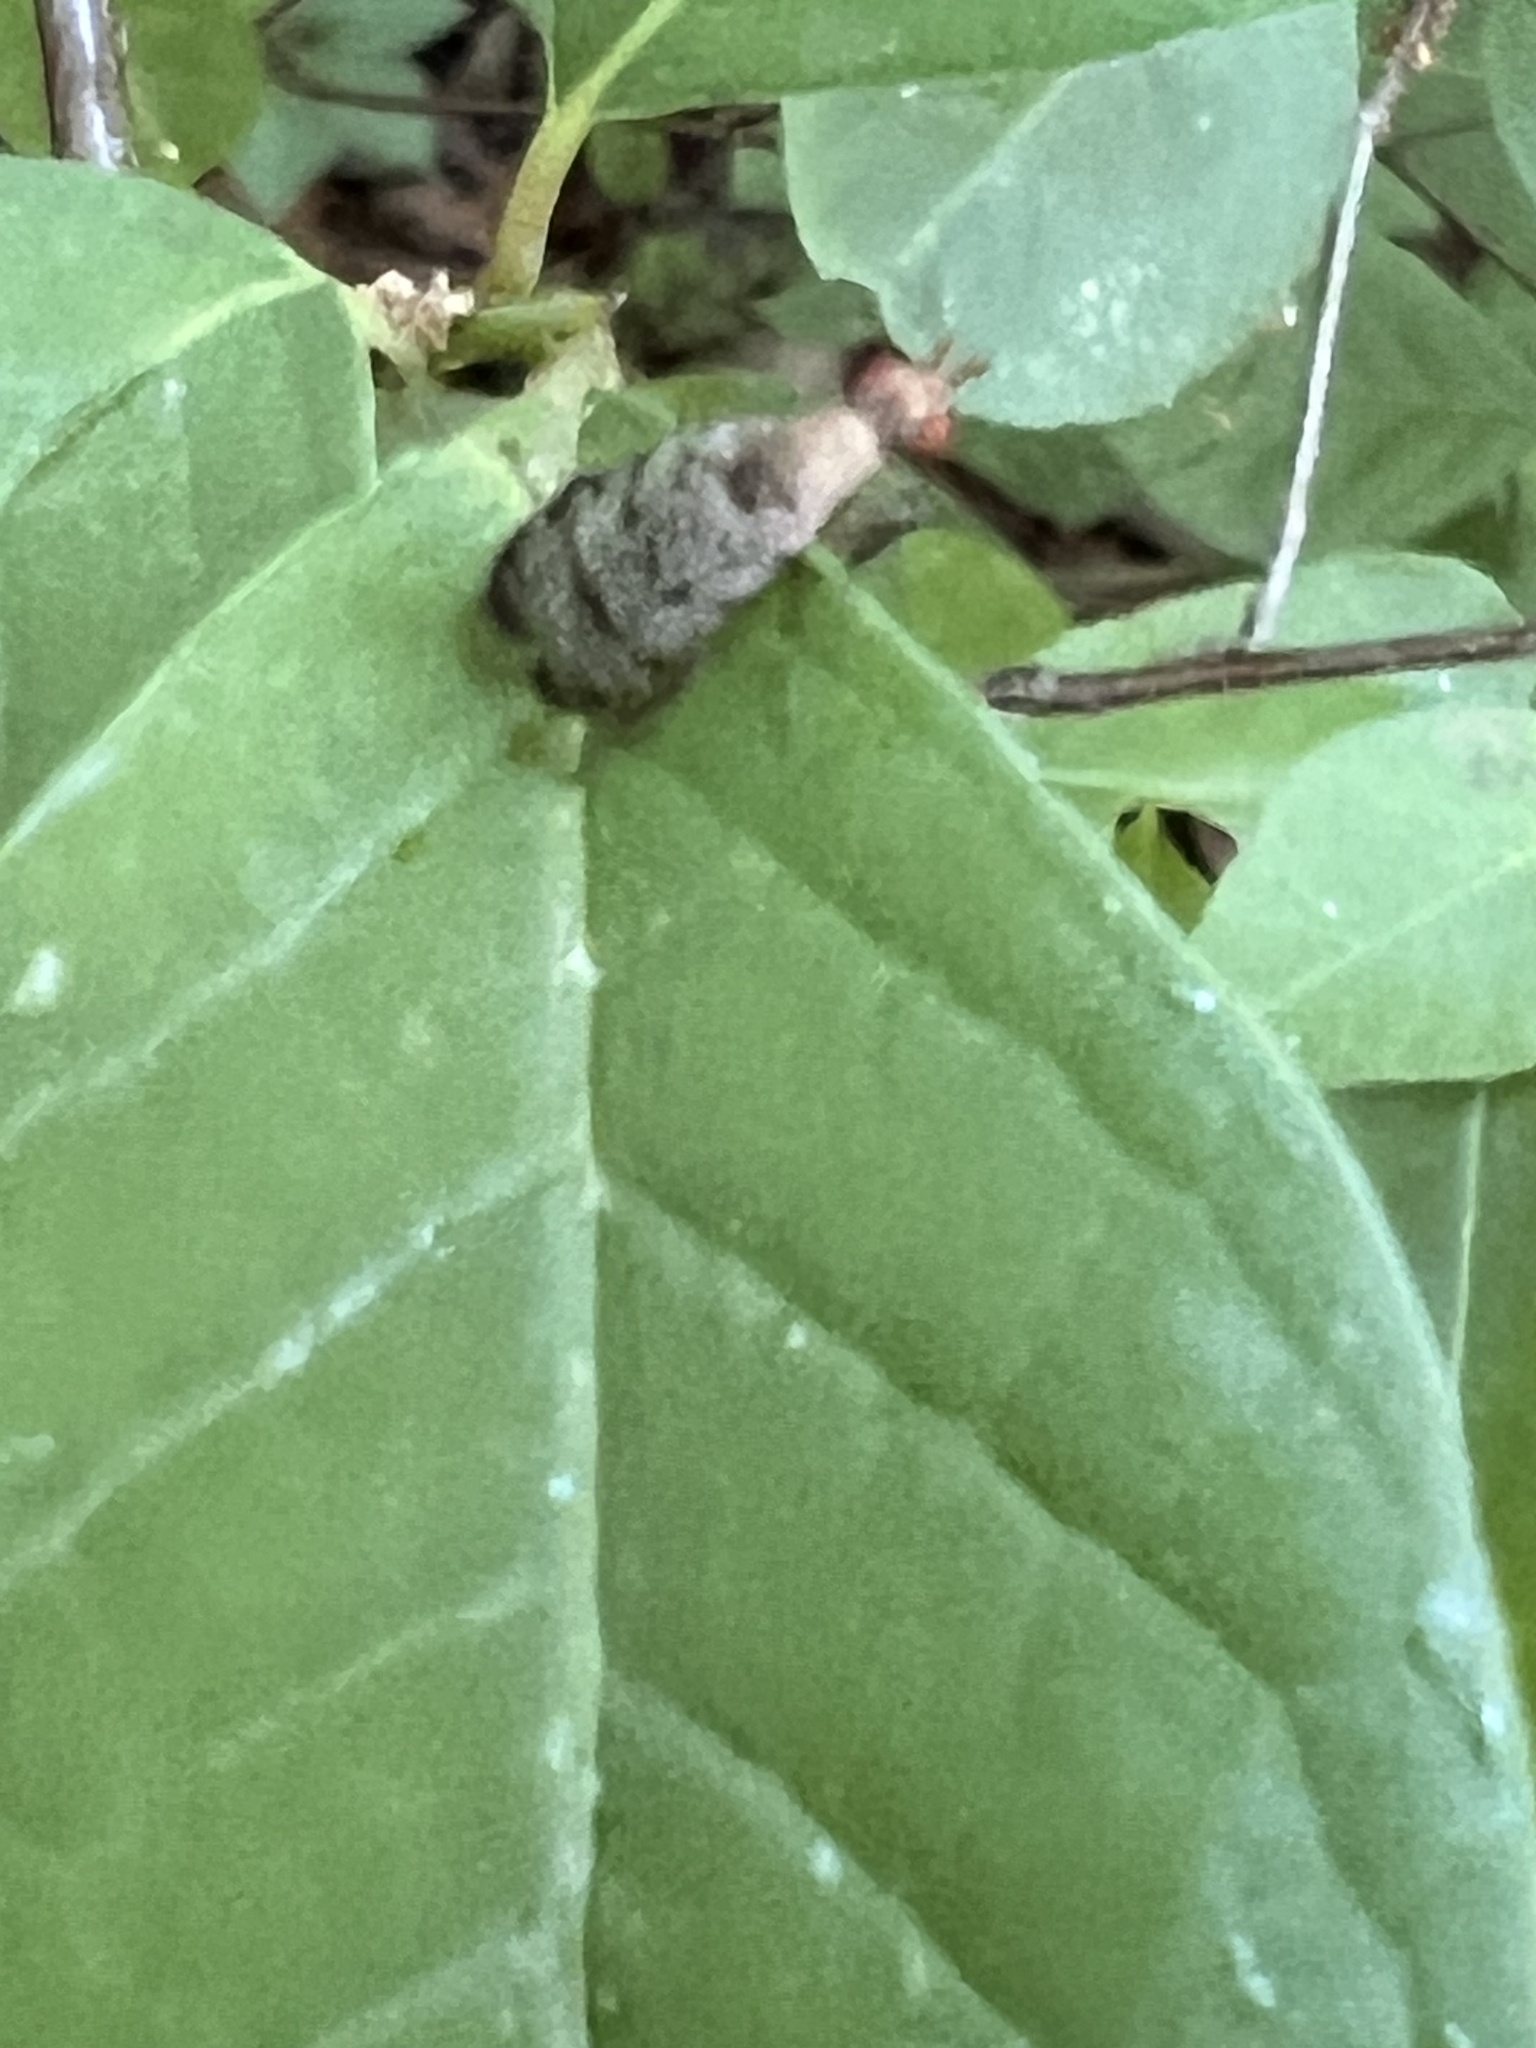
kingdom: Animalia
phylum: Arthropoda
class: Insecta
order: Diptera
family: Sciomyzidae
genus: Euthycera
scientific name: Euthycera flavescens
